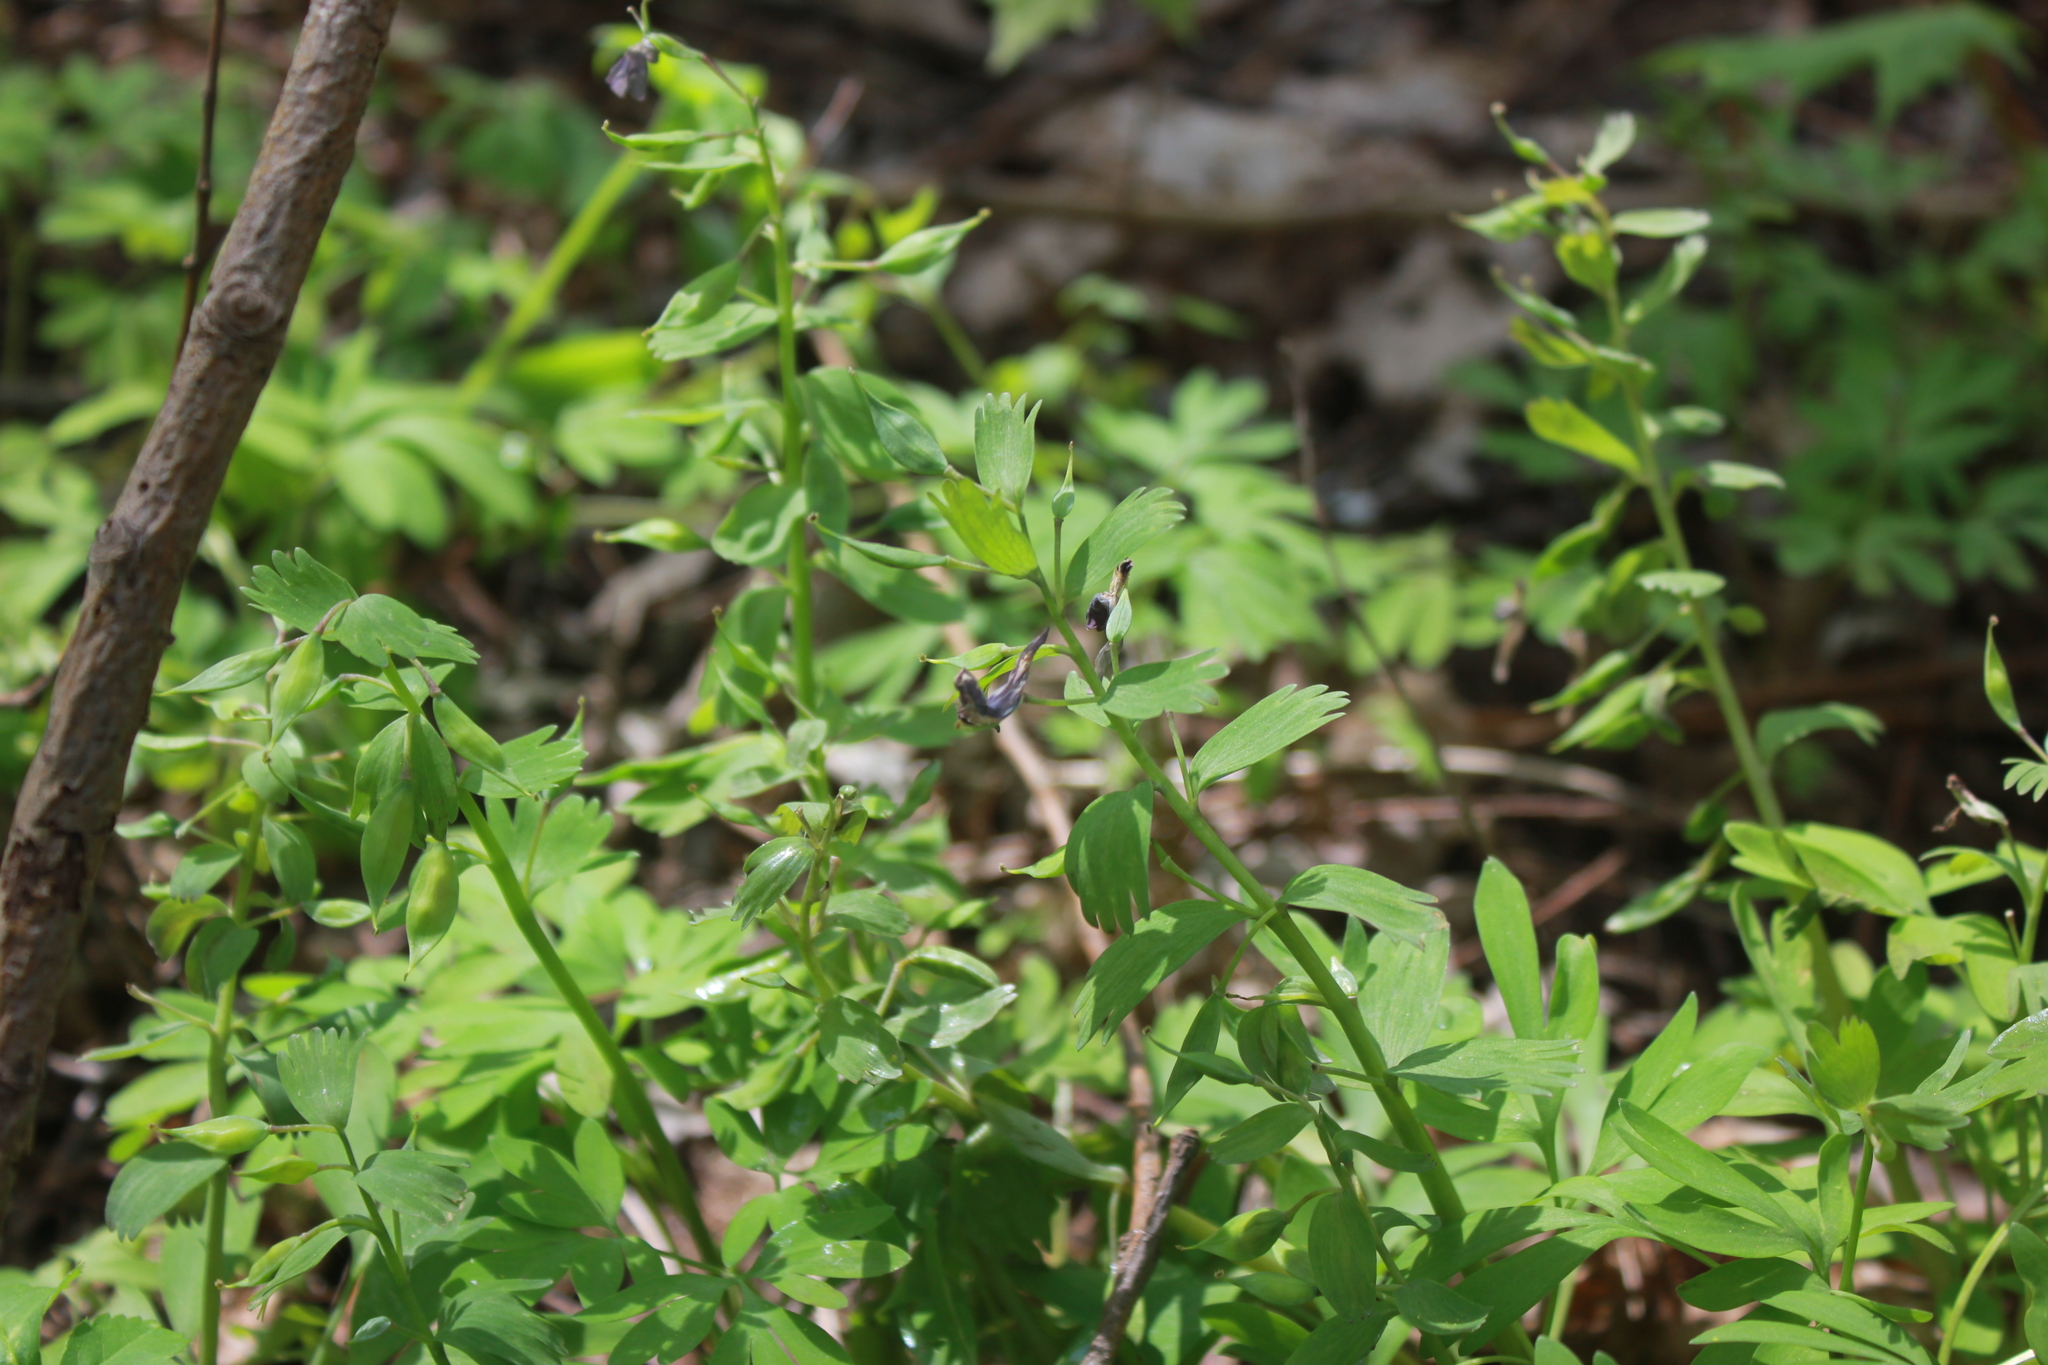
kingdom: Plantae
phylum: Tracheophyta
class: Magnoliopsida
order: Ranunculales
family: Papaveraceae
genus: Corydalis
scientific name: Corydalis solida
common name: Bird-in-a-bush
